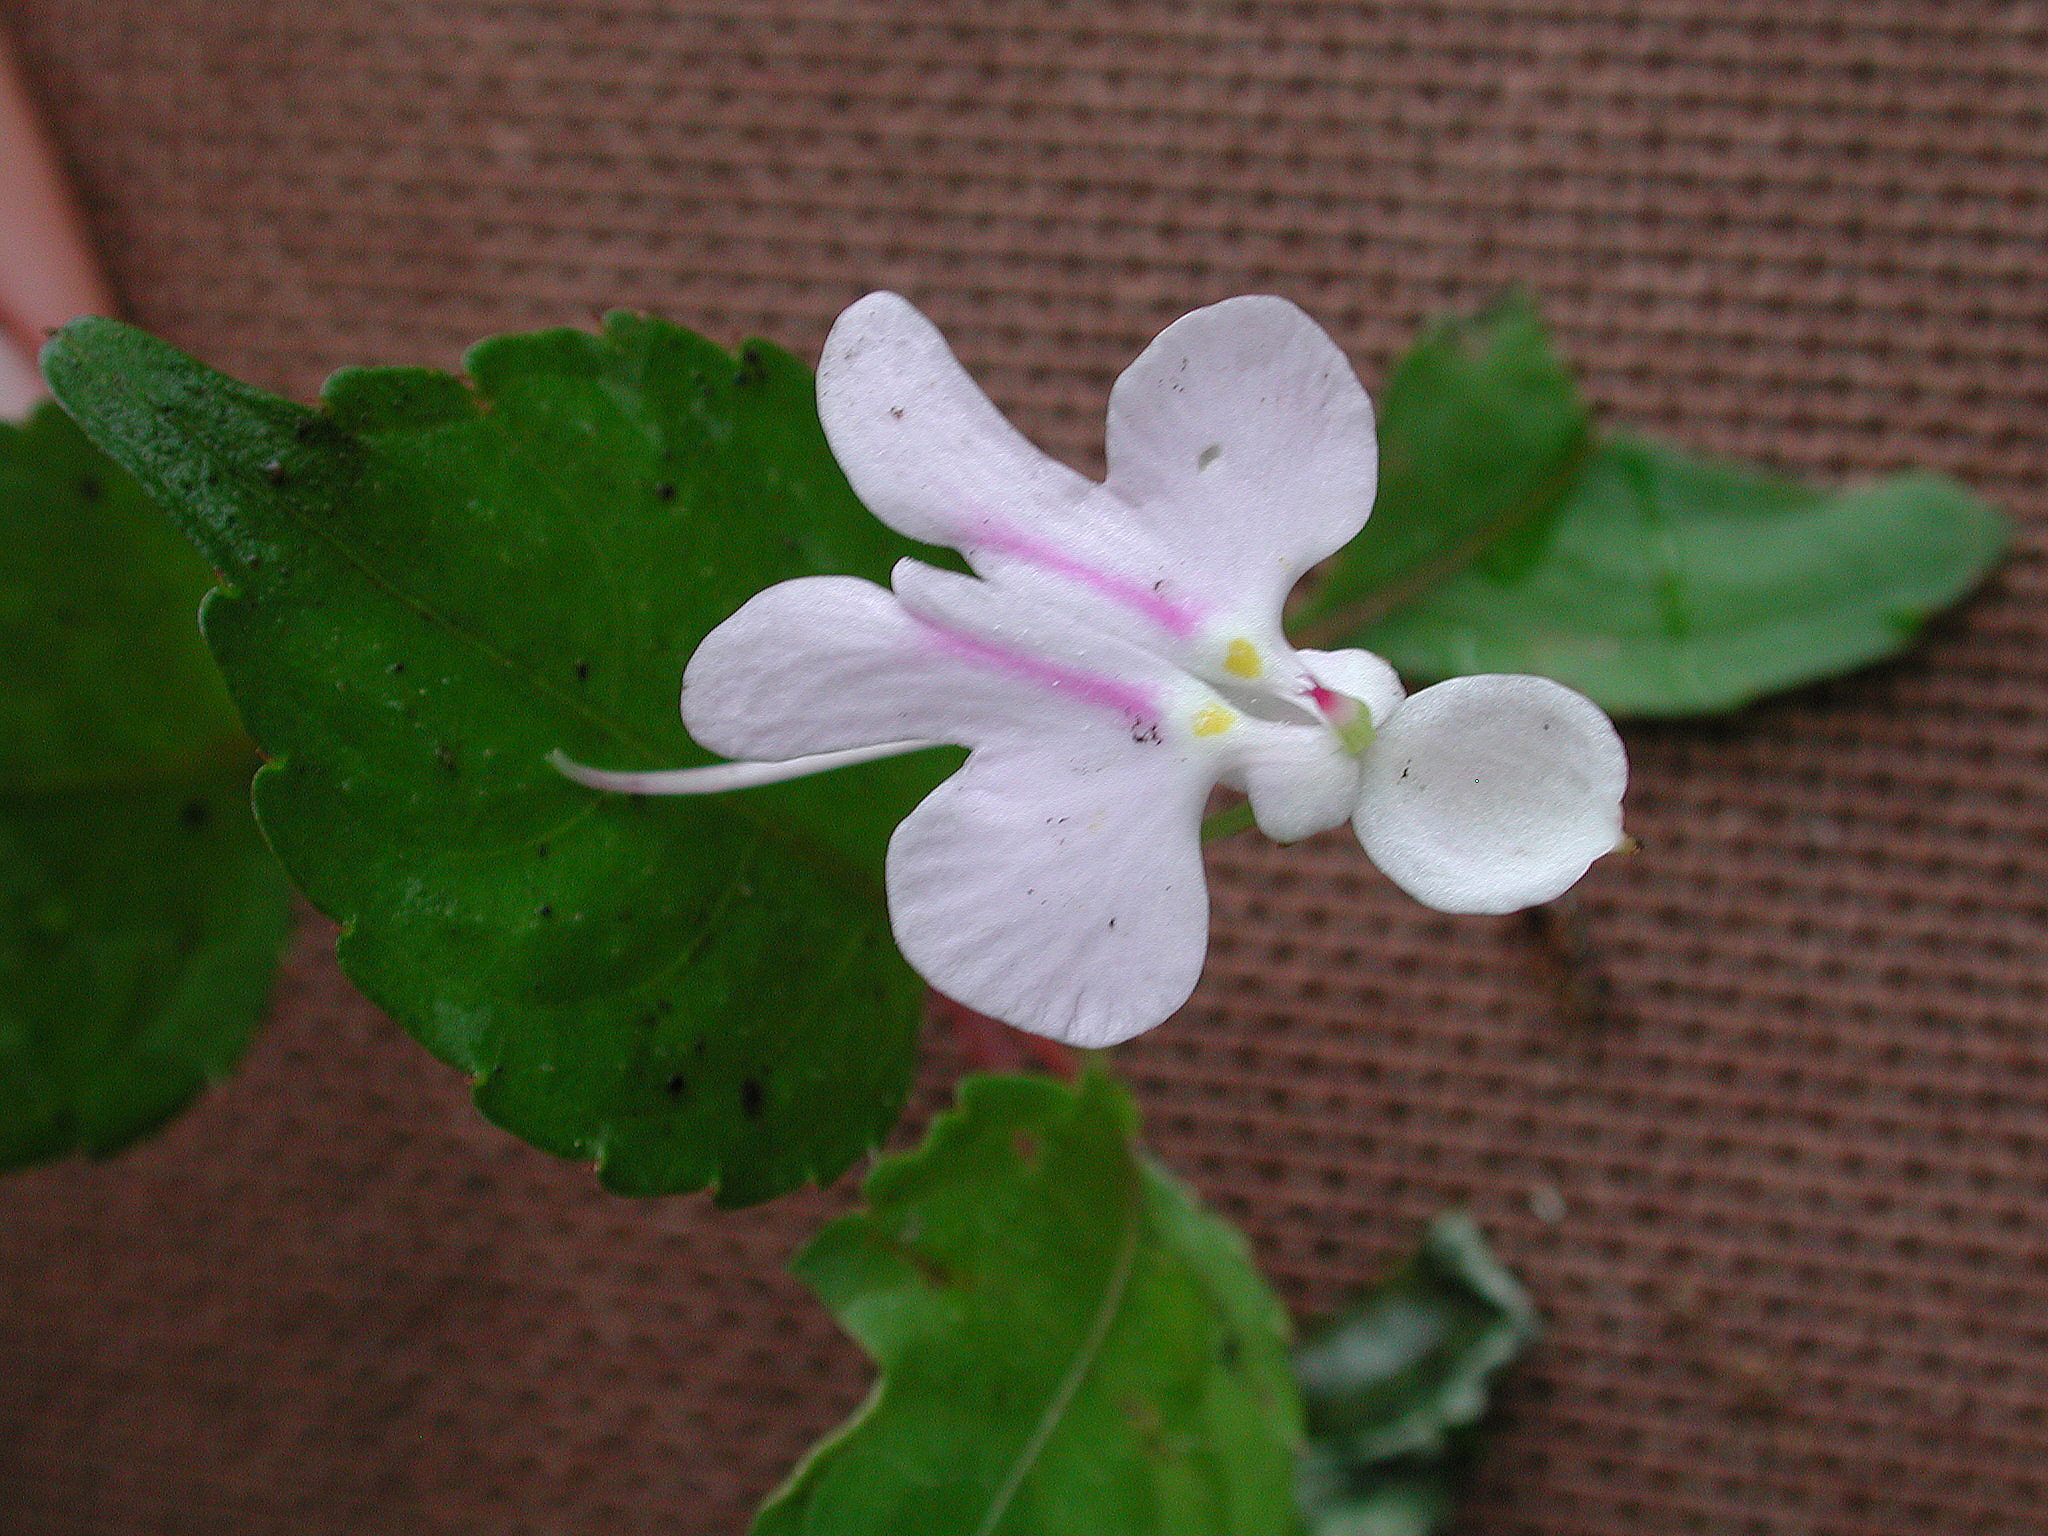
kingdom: Plantae
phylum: Tracheophyta
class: Magnoliopsida
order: Ericales
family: Balsaminaceae
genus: Impatiens
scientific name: Impatiens hochstetteri
